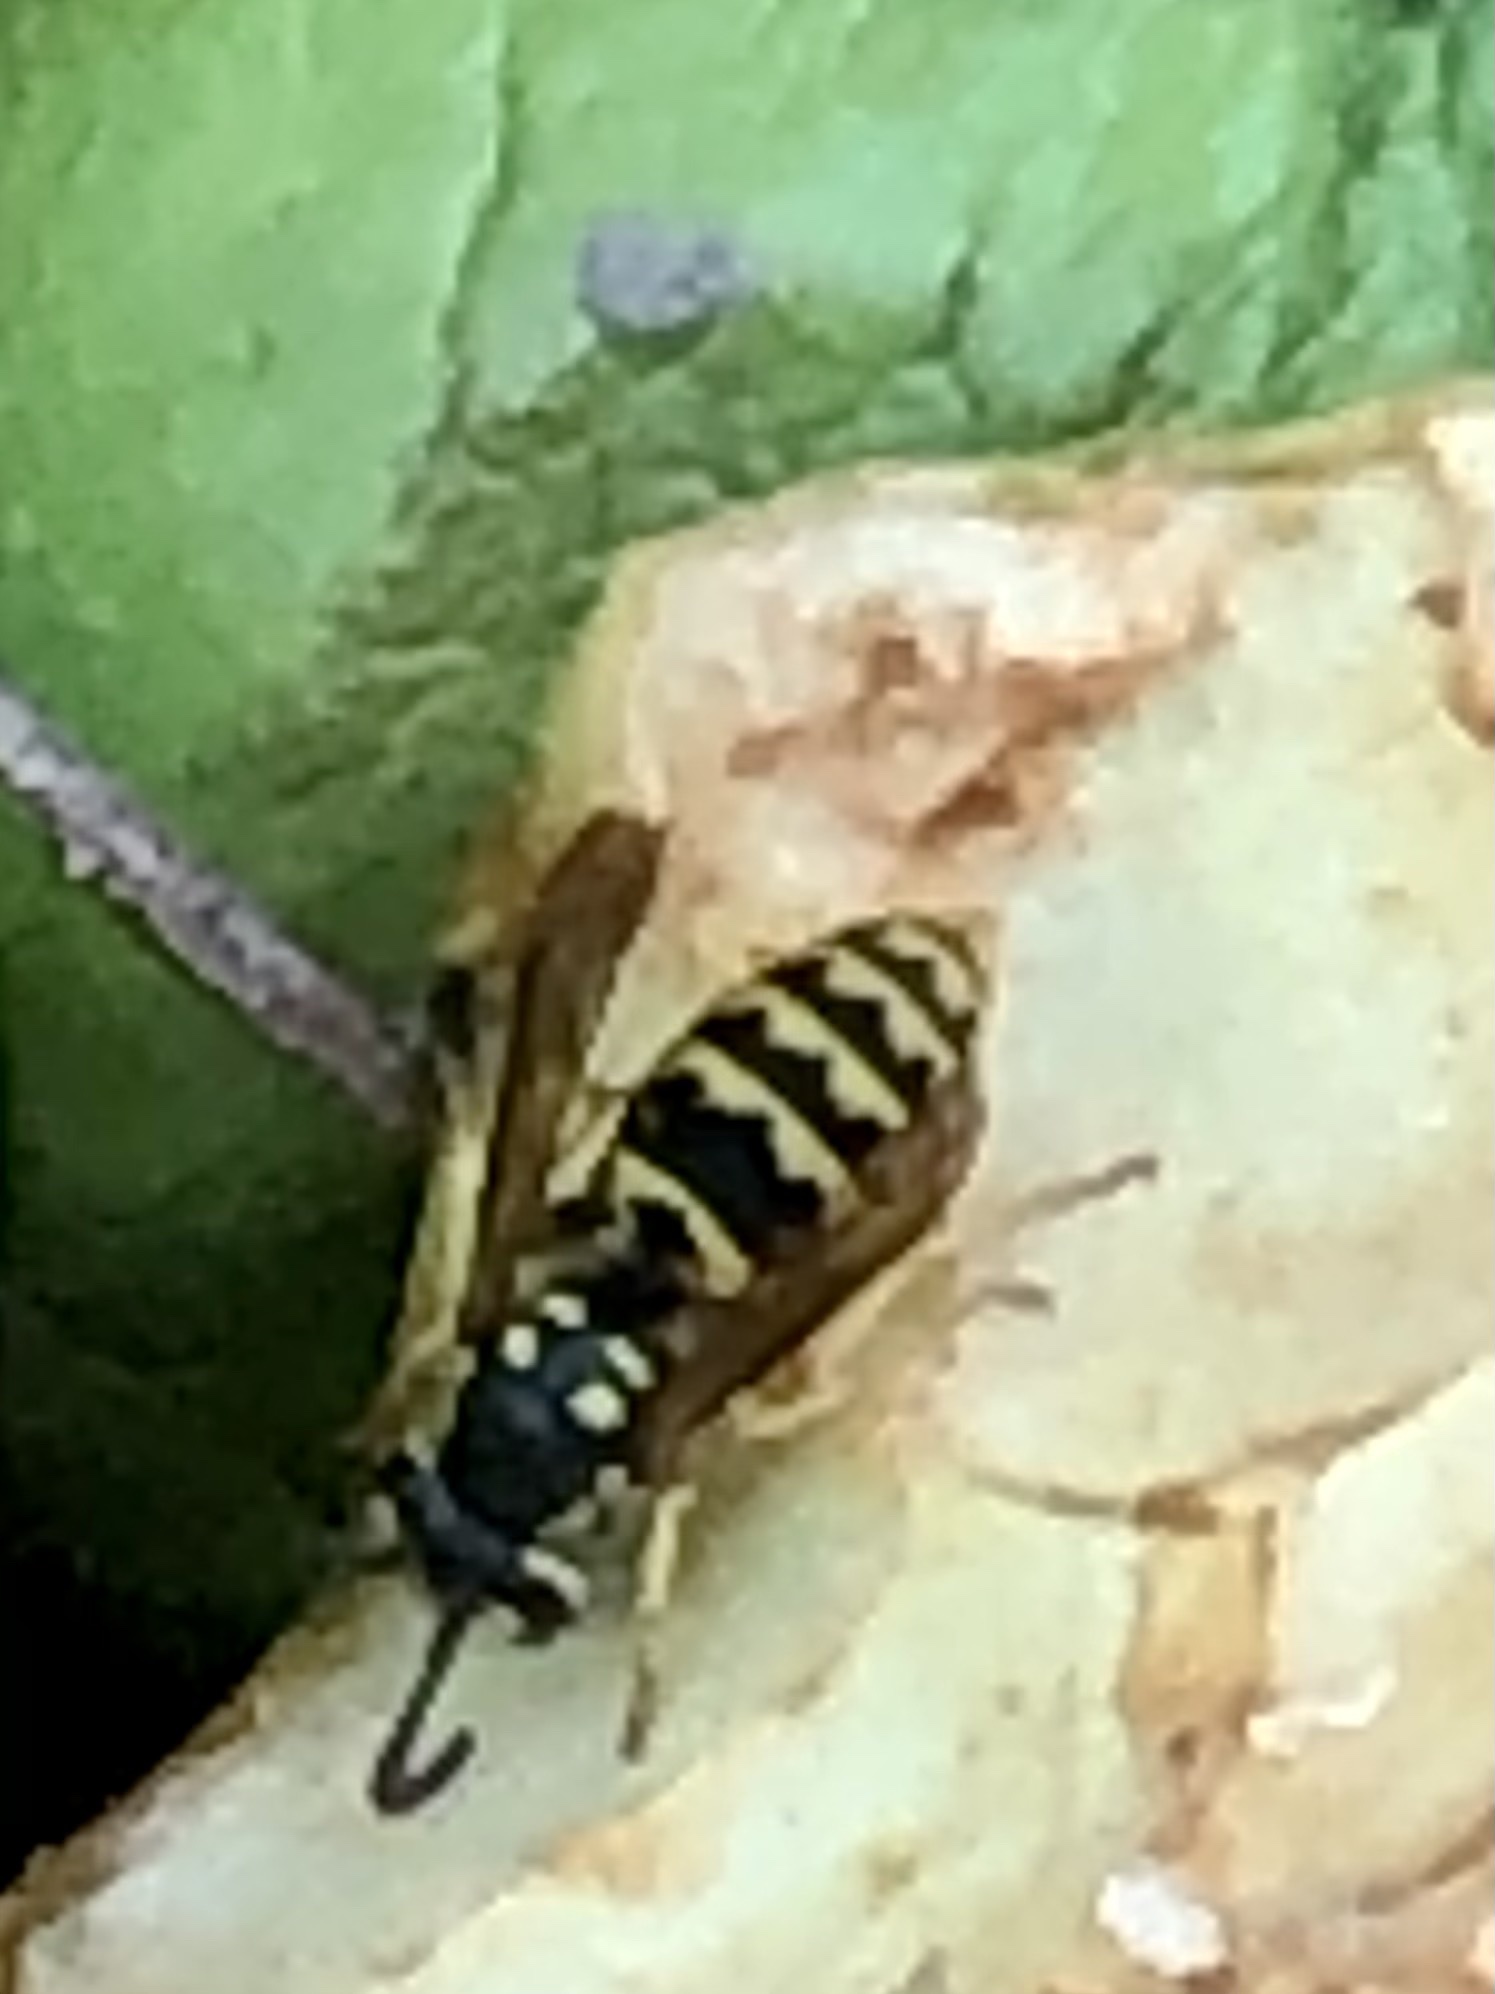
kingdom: Animalia
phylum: Arthropoda
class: Insecta
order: Hymenoptera
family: Vespidae
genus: Vespula
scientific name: Vespula germanica
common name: German wasp
